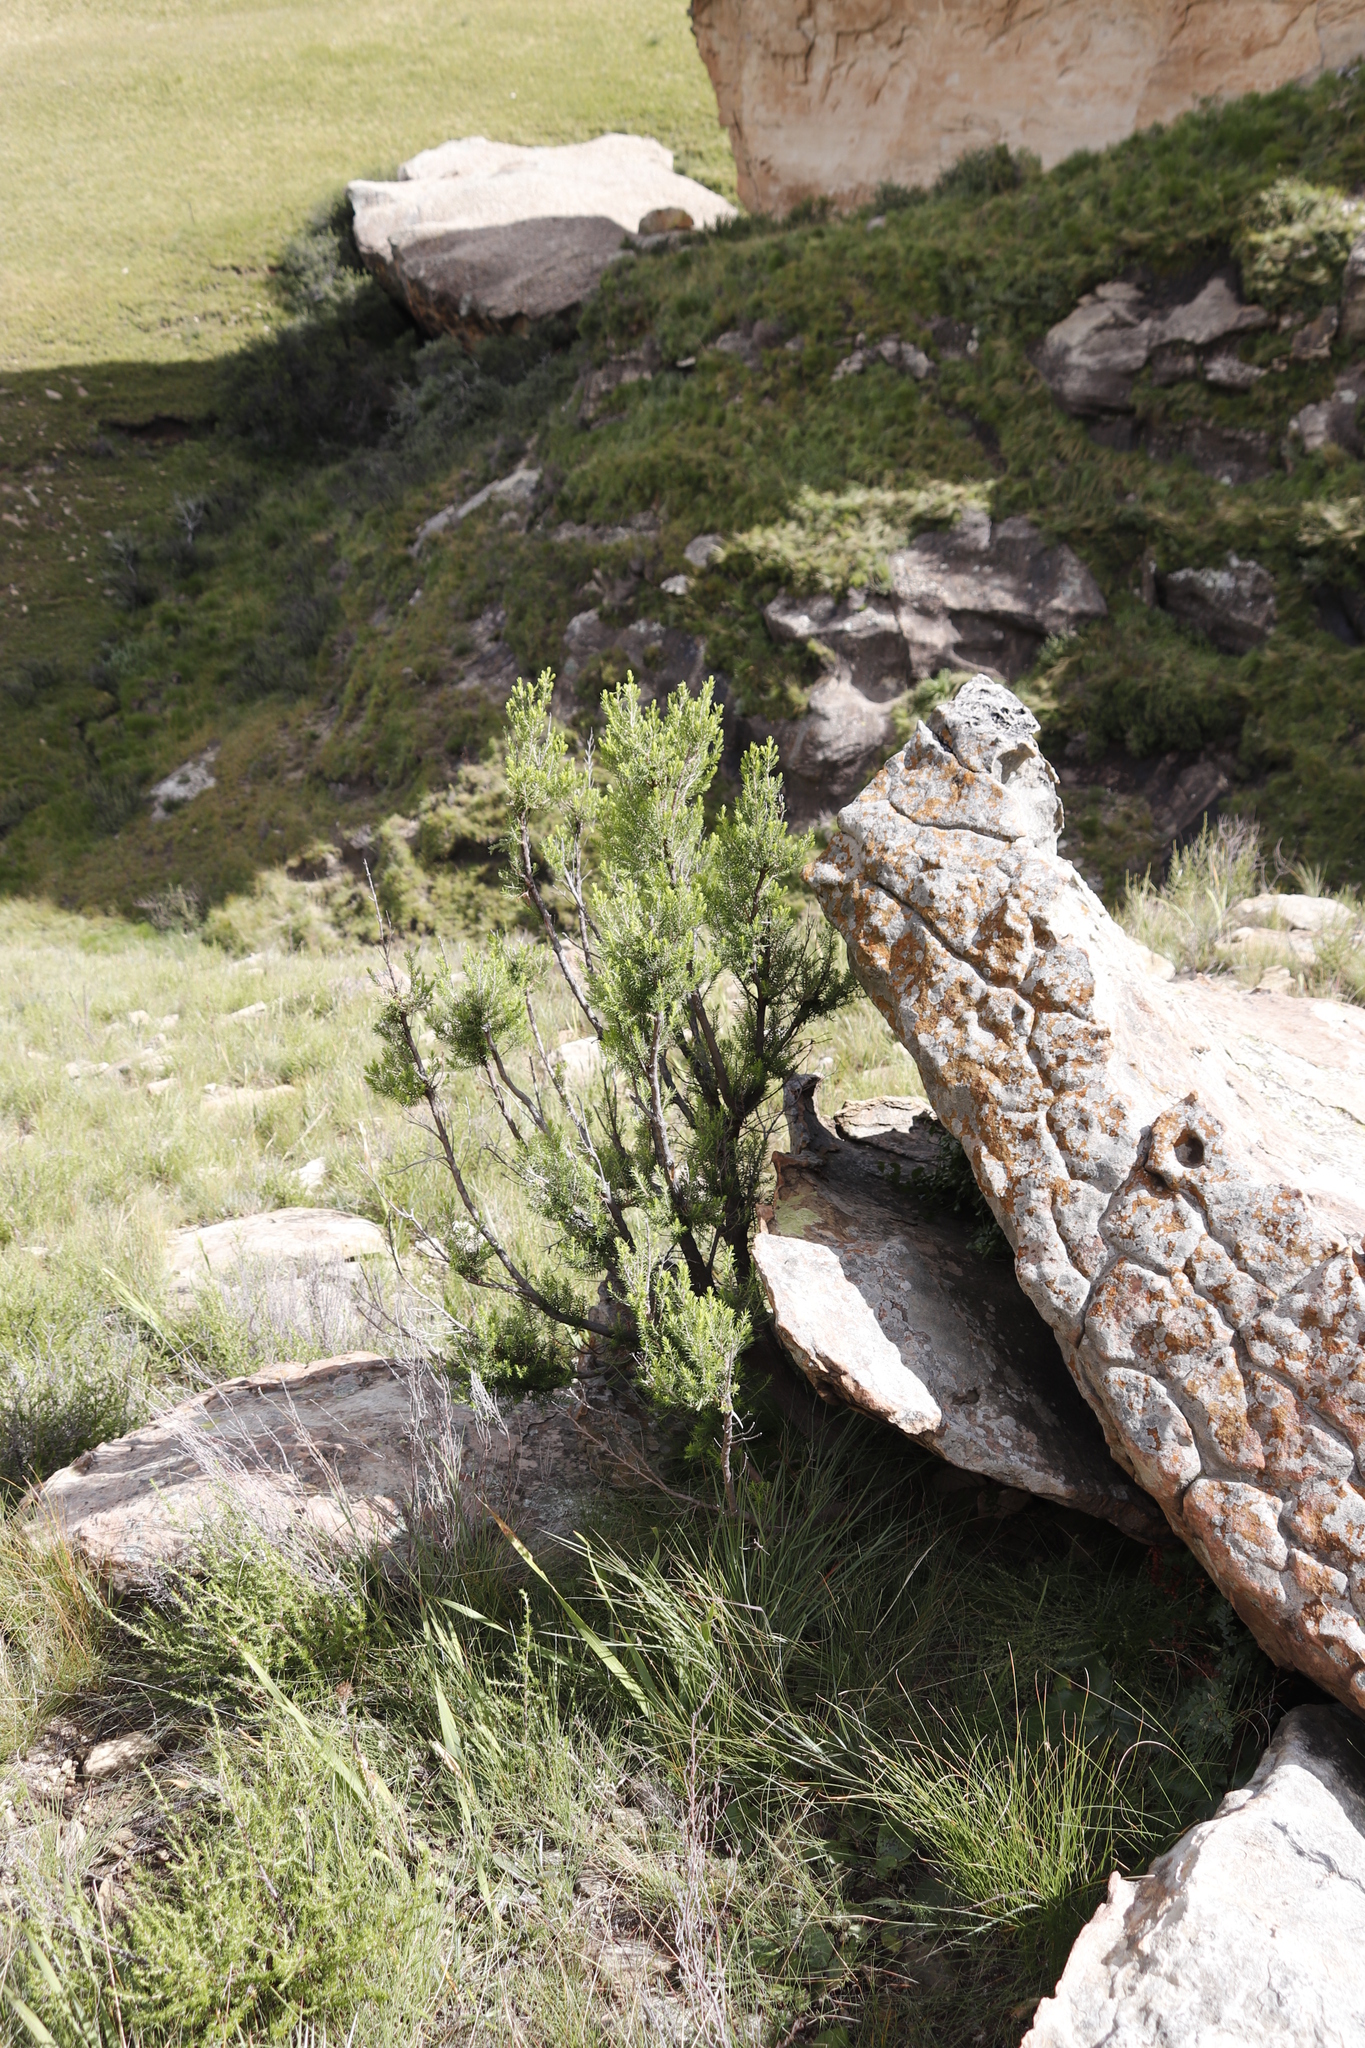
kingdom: Plantae
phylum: Tracheophyta
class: Magnoliopsida
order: Ericales
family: Ericaceae
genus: Erica
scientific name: Erica caffra
